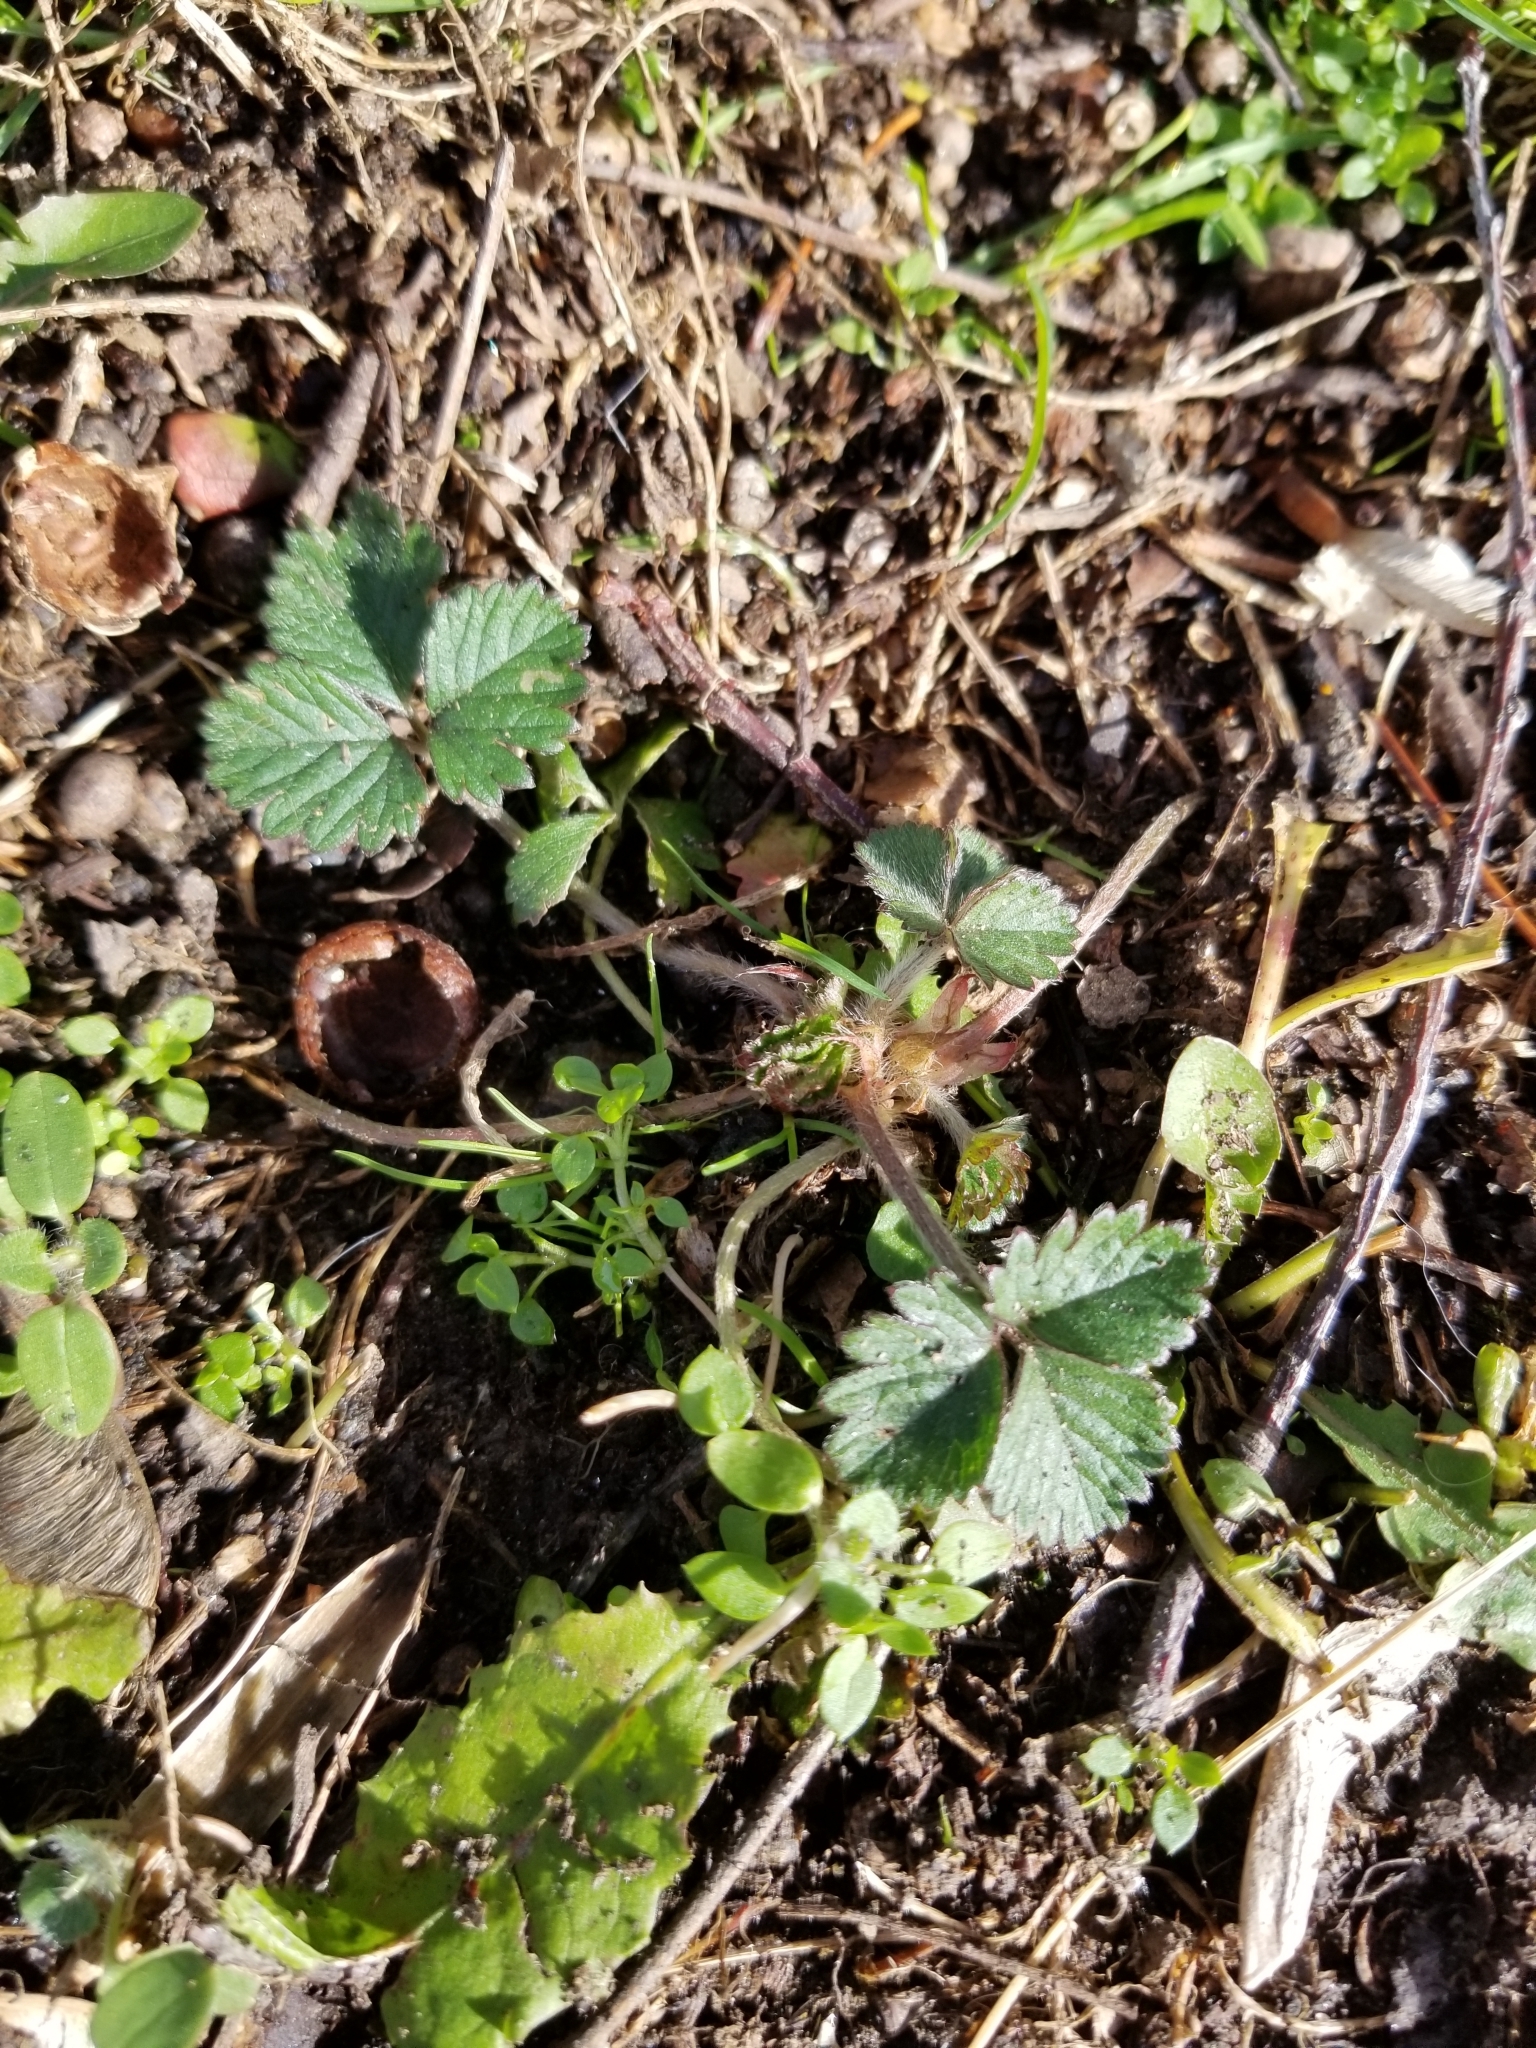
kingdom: Plantae
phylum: Tracheophyta
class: Magnoliopsida
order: Rosales
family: Rosaceae
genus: Potentilla
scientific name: Potentilla indica
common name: Yellow-flowered strawberry
